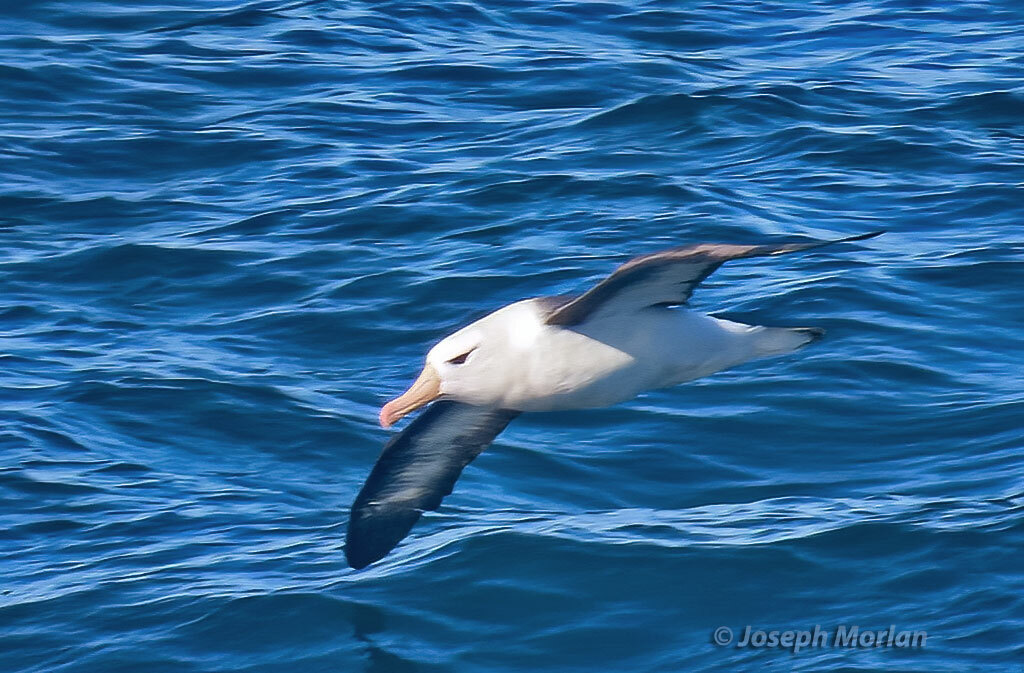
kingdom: Animalia
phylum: Chordata
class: Aves
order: Procellariiformes
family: Diomedeidae
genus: Thalassarche
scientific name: Thalassarche melanophris
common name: Black-browed albatross
